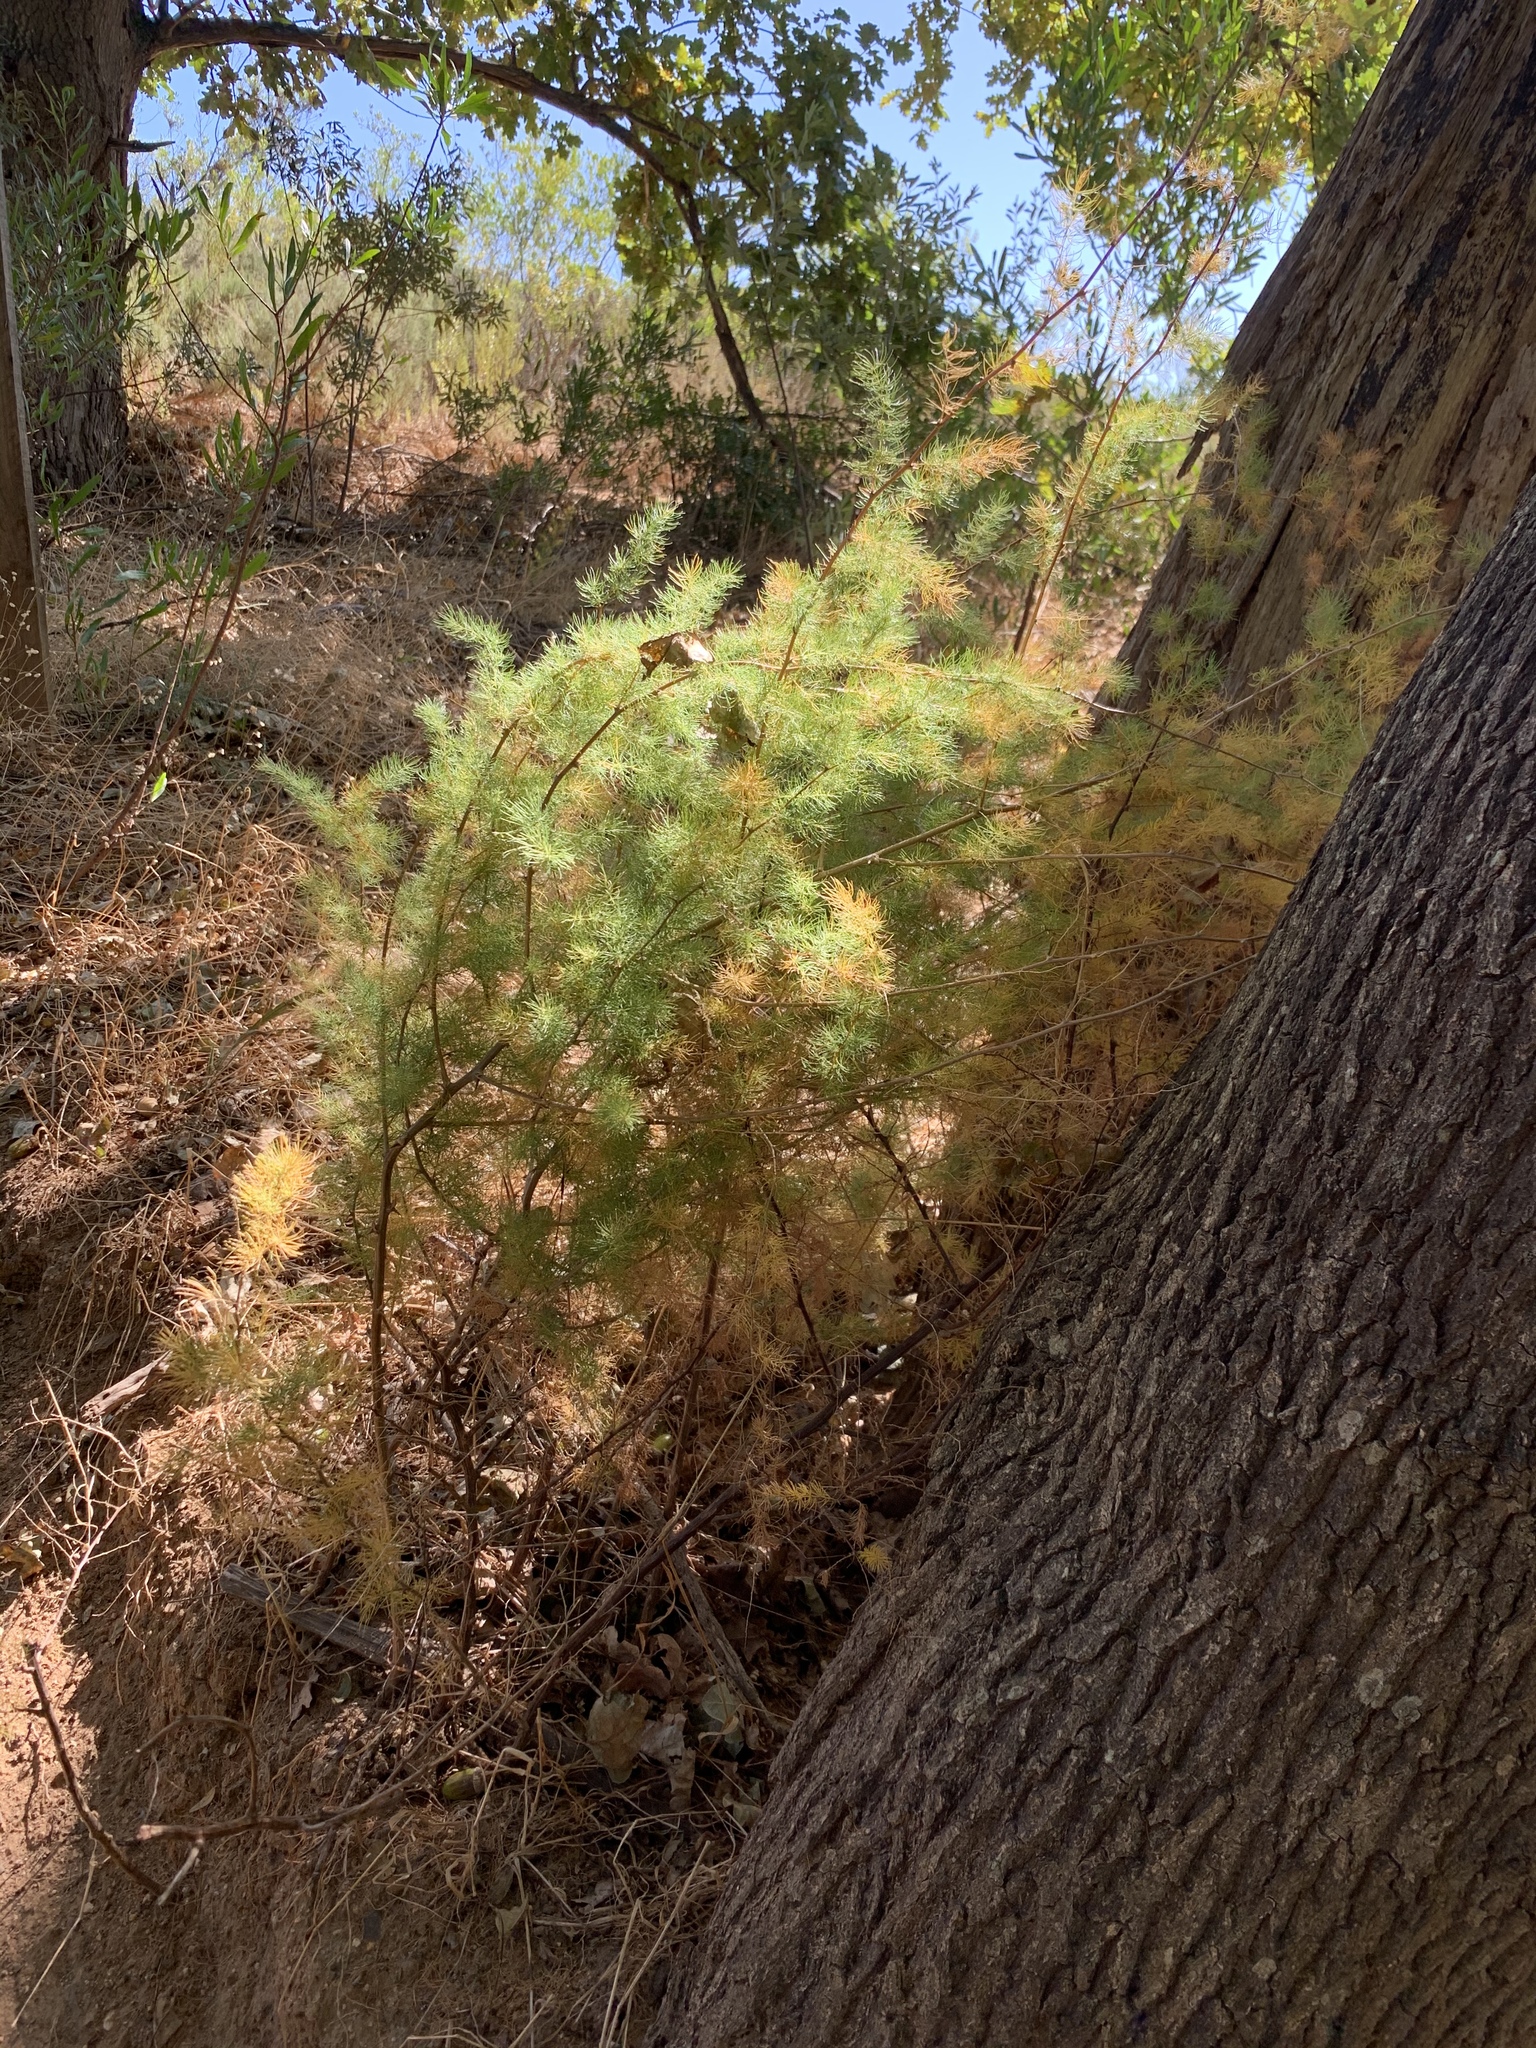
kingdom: Plantae
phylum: Tracheophyta
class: Liliopsida
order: Asparagales
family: Asparagaceae
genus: Asparagus
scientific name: Asparagus rubicundus
